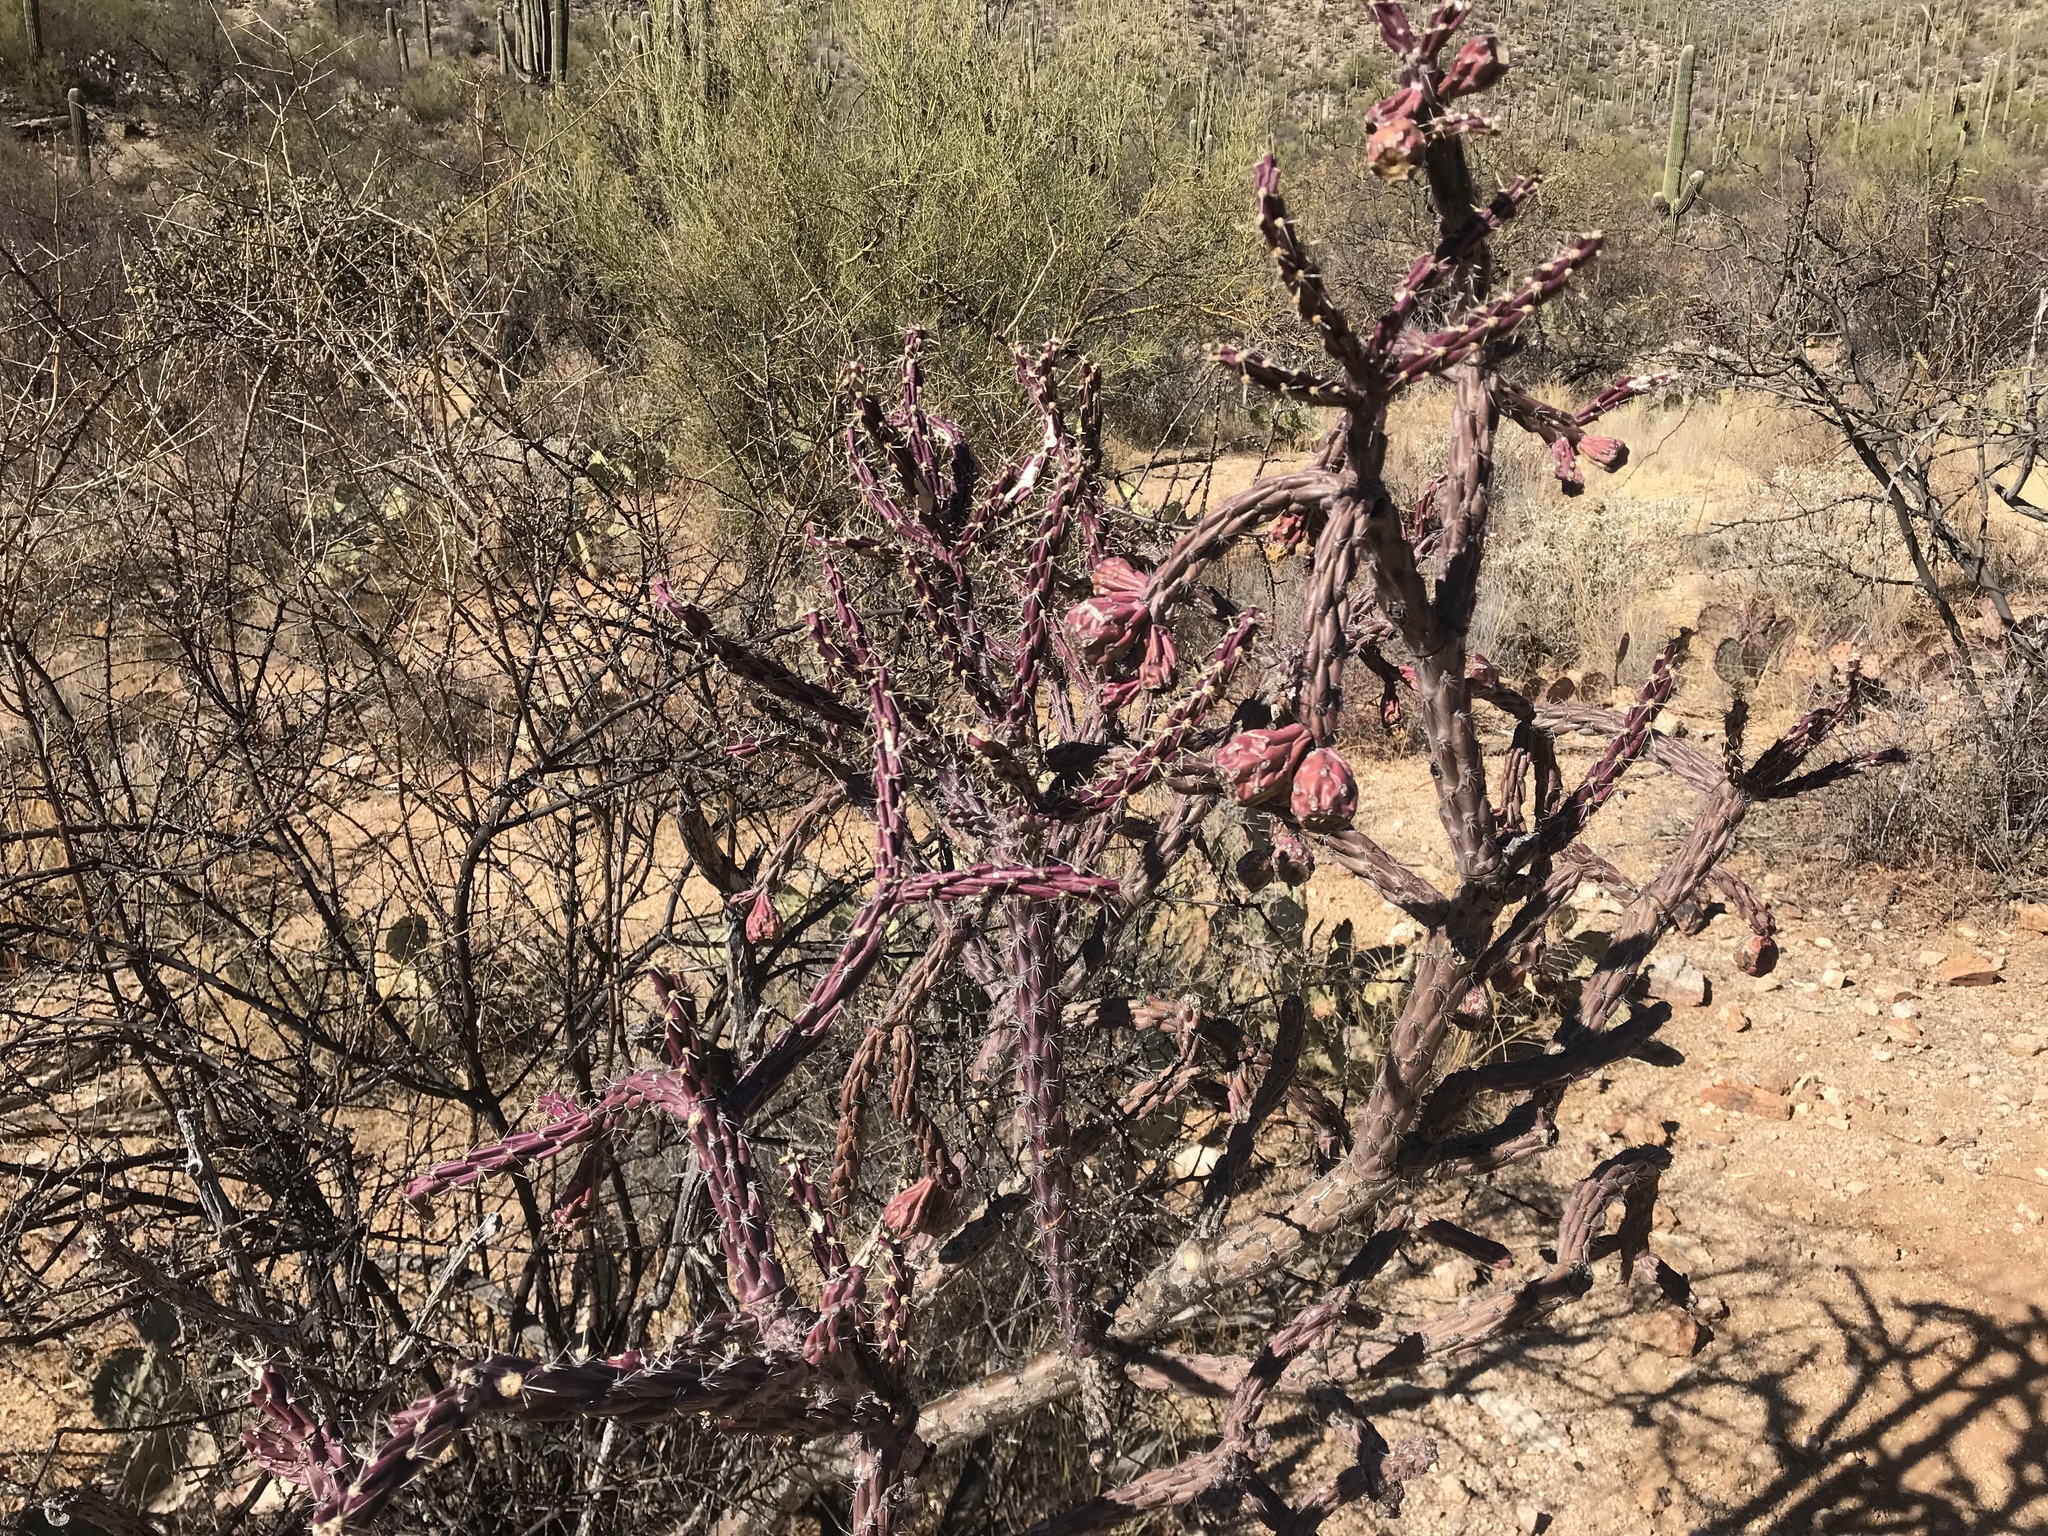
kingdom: Plantae
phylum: Tracheophyta
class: Magnoliopsida
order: Caryophyllales
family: Cactaceae
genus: Cylindropuntia
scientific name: Cylindropuntia thurberi
